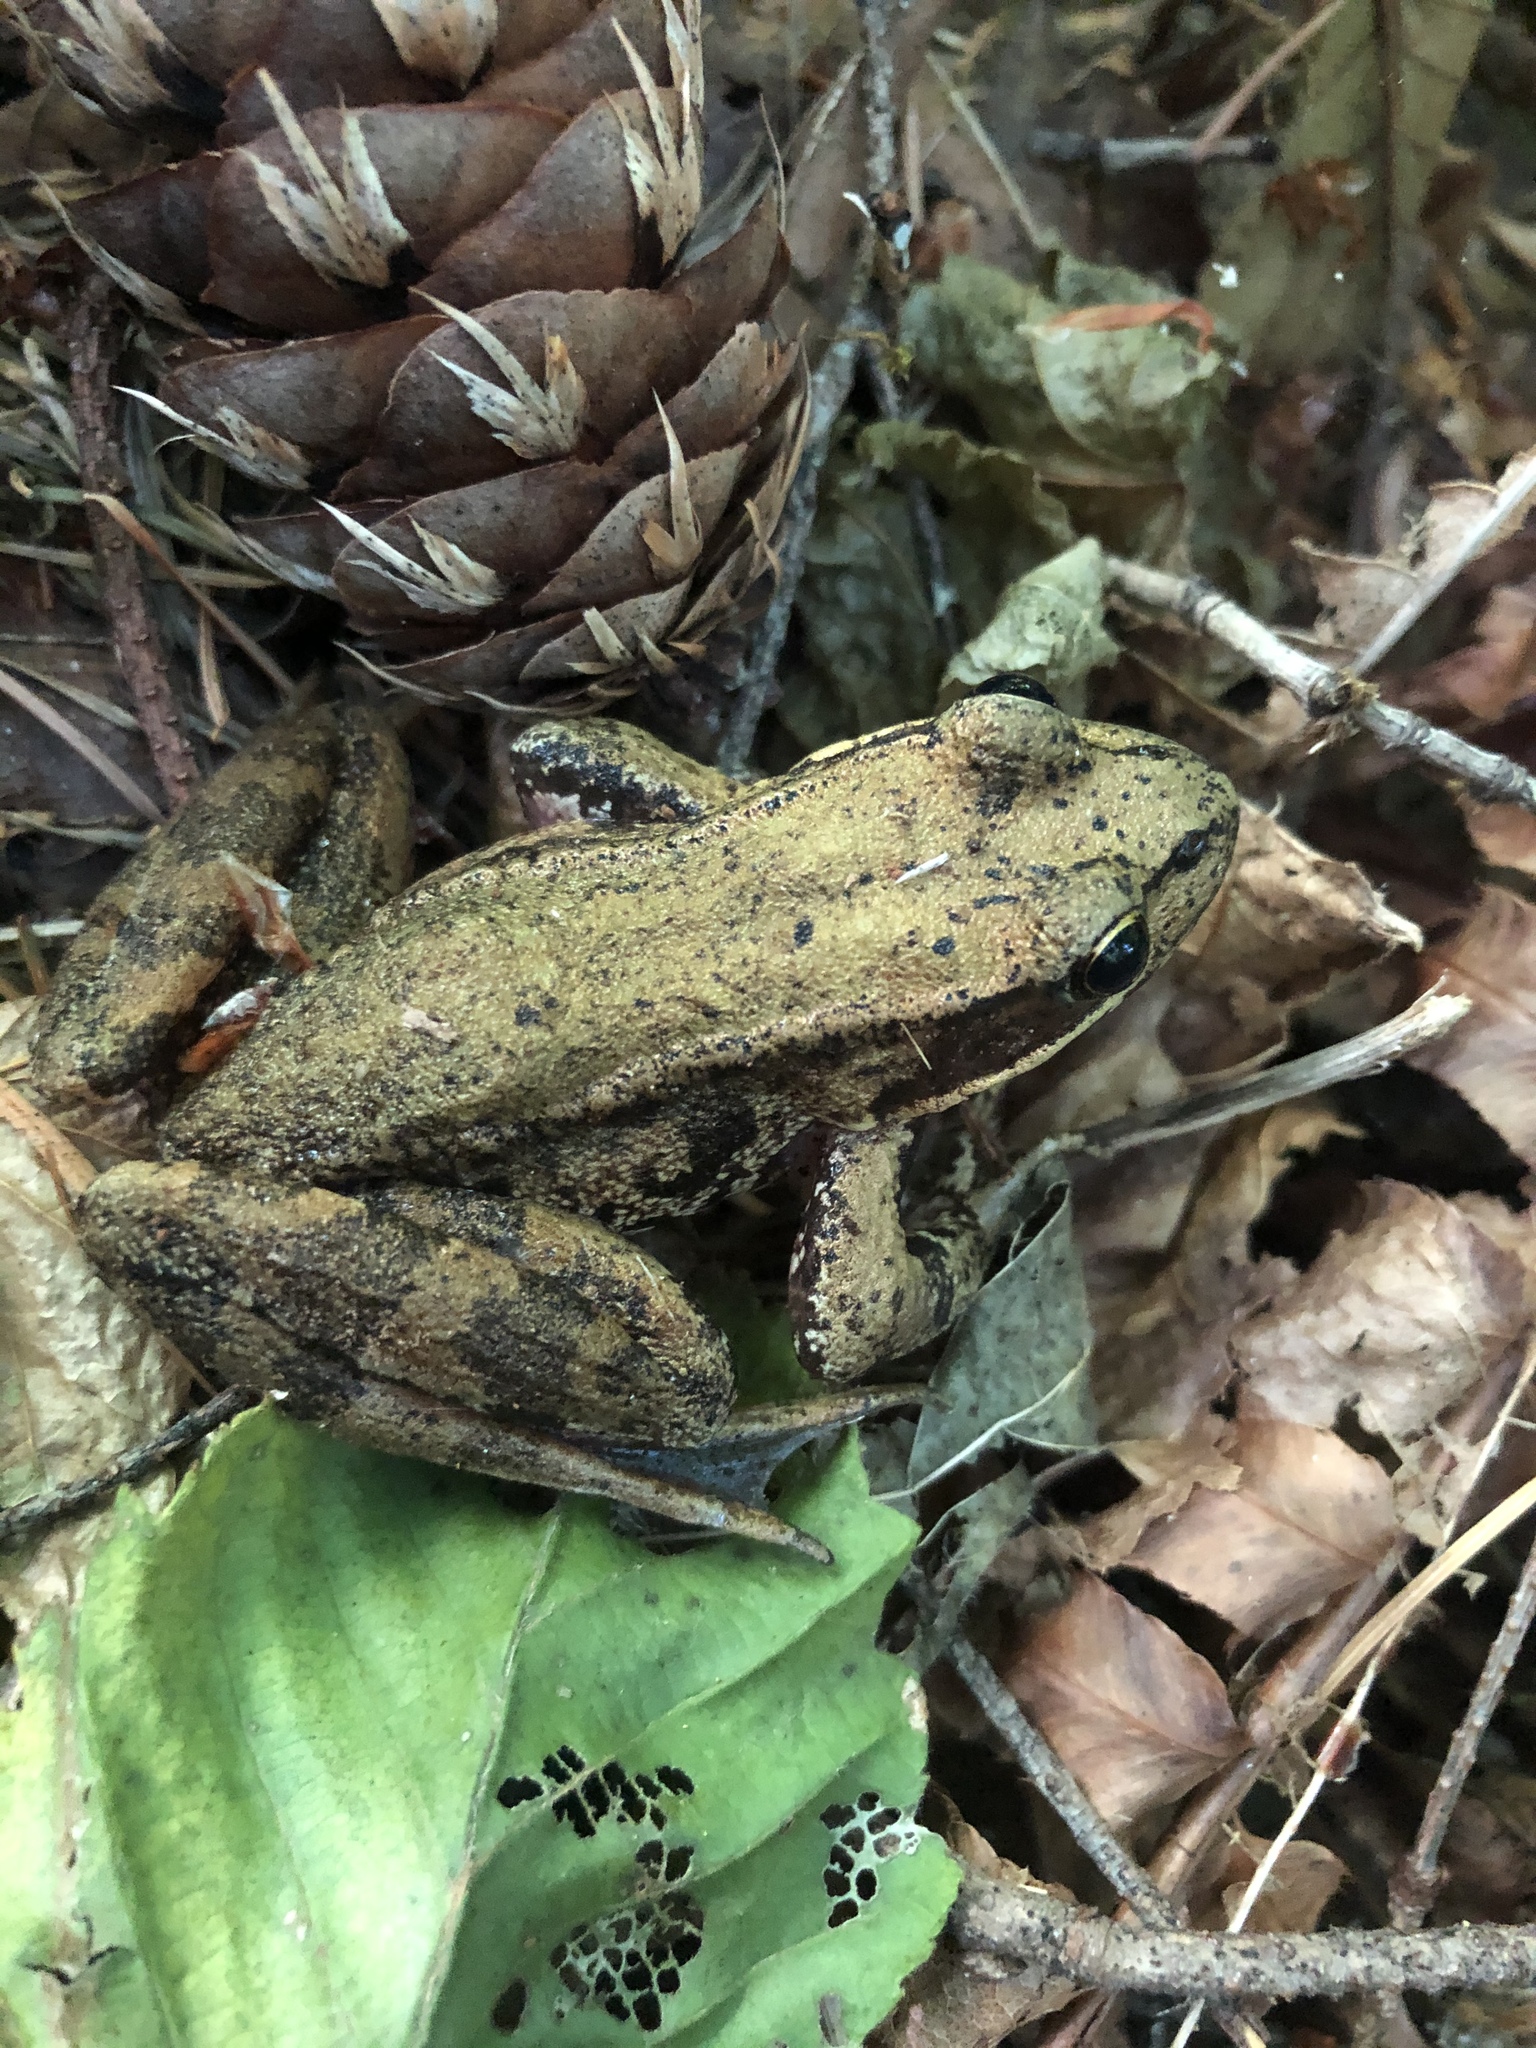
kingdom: Animalia
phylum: Chordata
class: Amphibia
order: Anura
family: Ranidae
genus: Rana
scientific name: Rana aurora
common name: Red-legged frog
